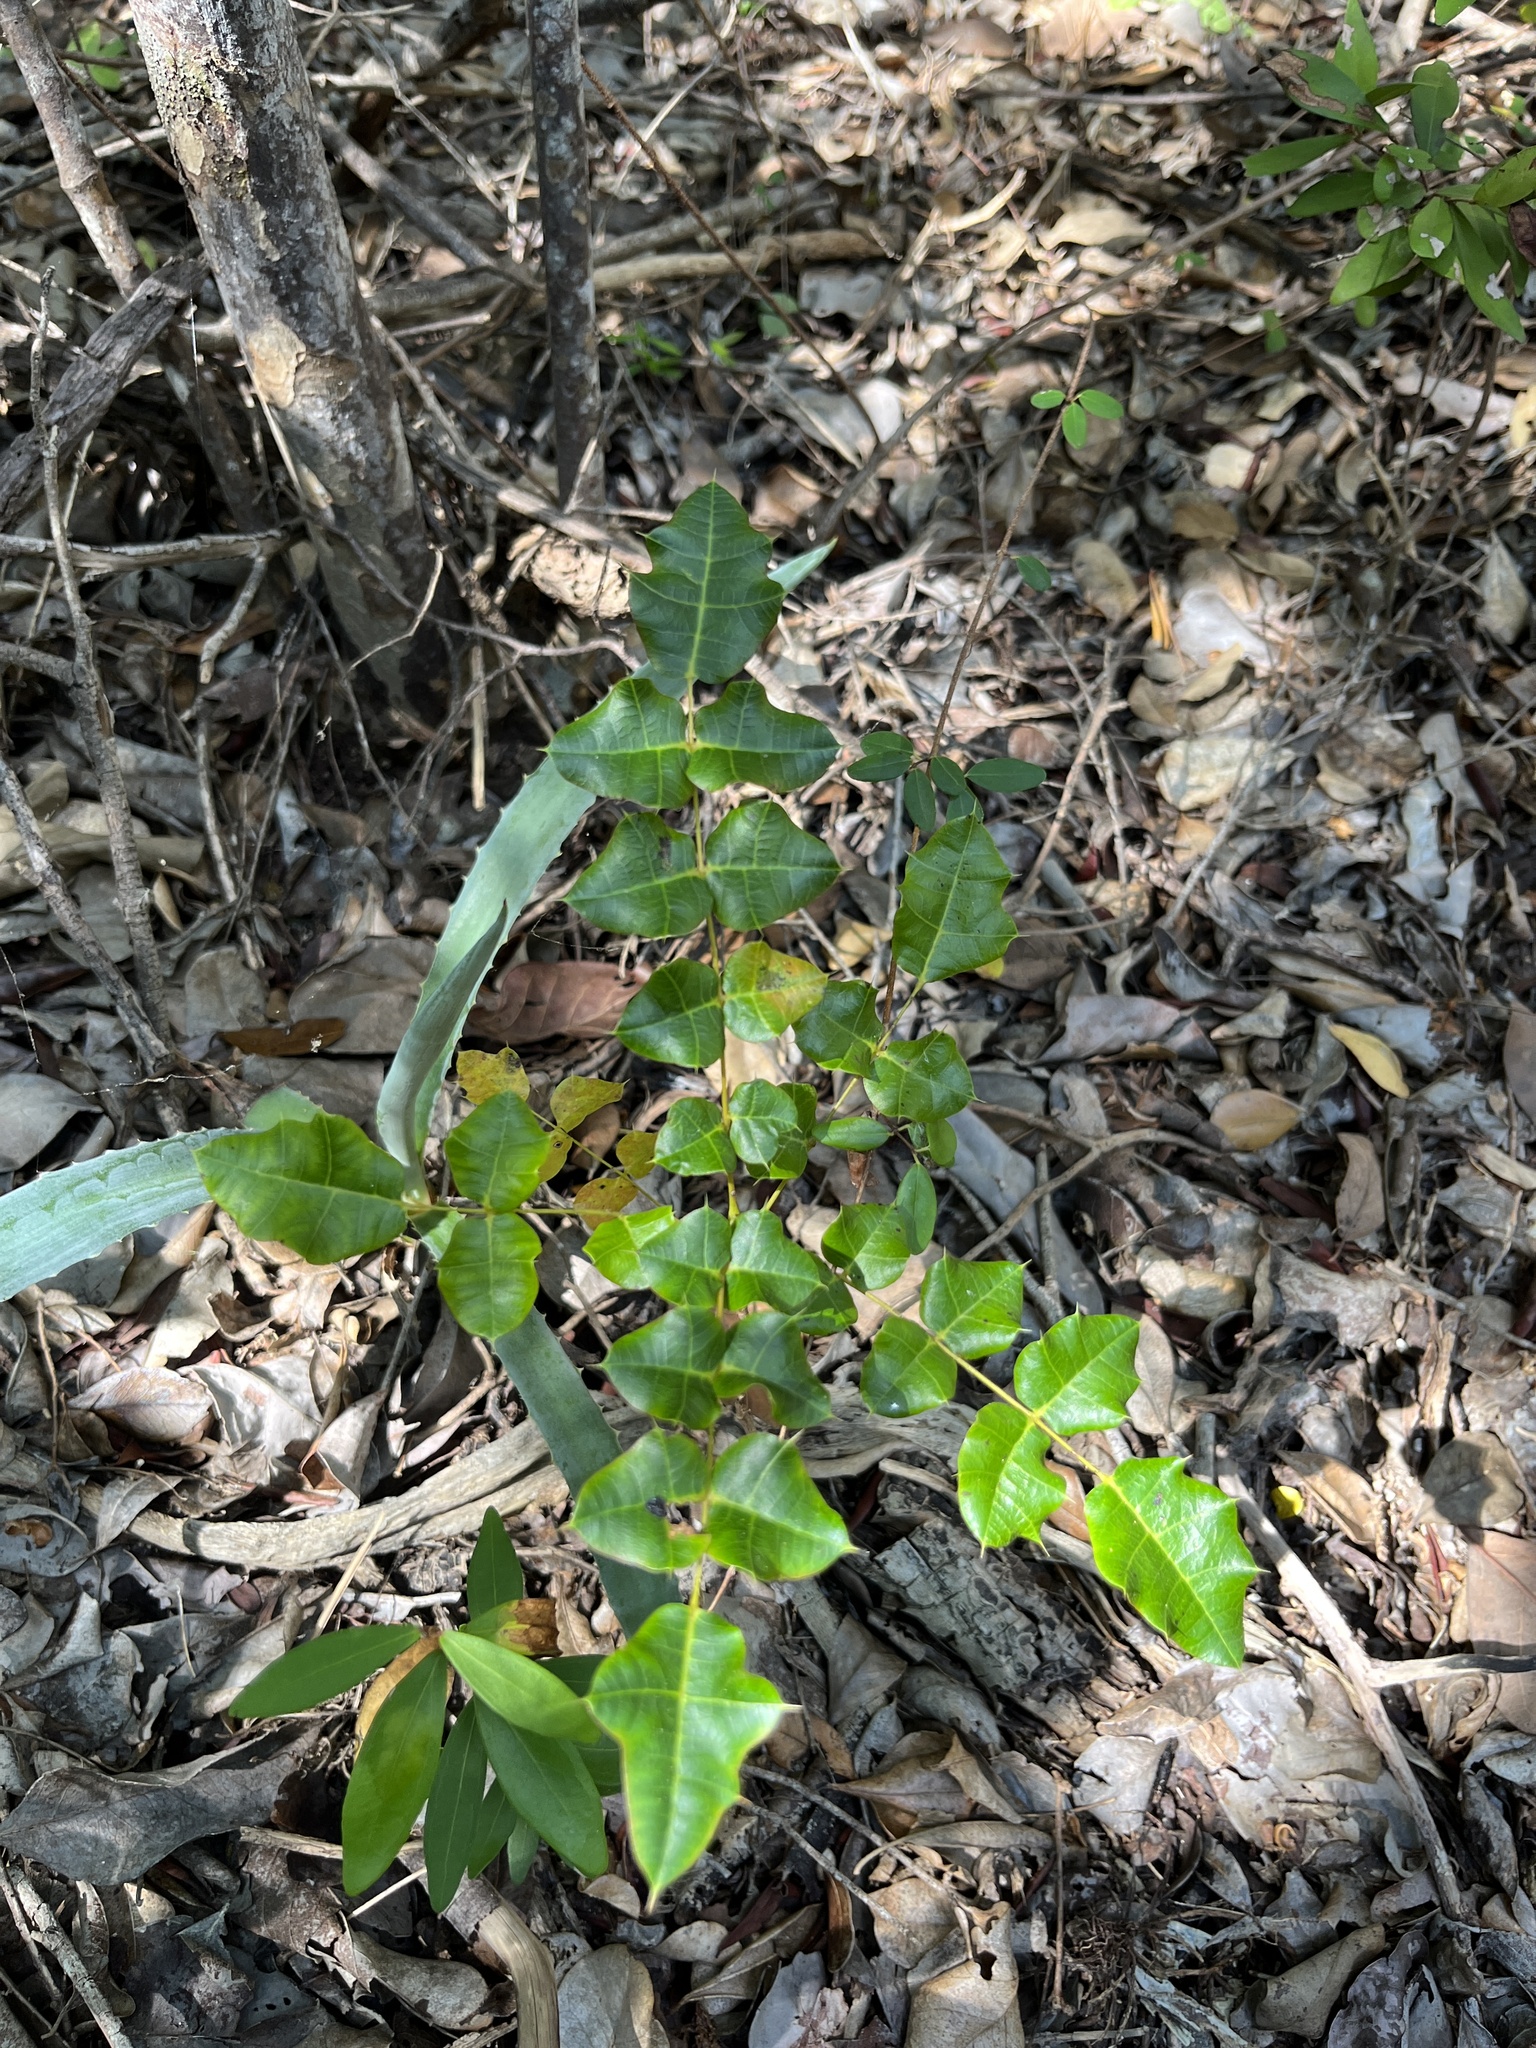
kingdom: Plantae
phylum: Tracheophyta
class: Magnoliopsida
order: Sapindales
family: Anacardiaceae
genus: Comocladia
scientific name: Comocladia dodonaea
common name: Poison ash
